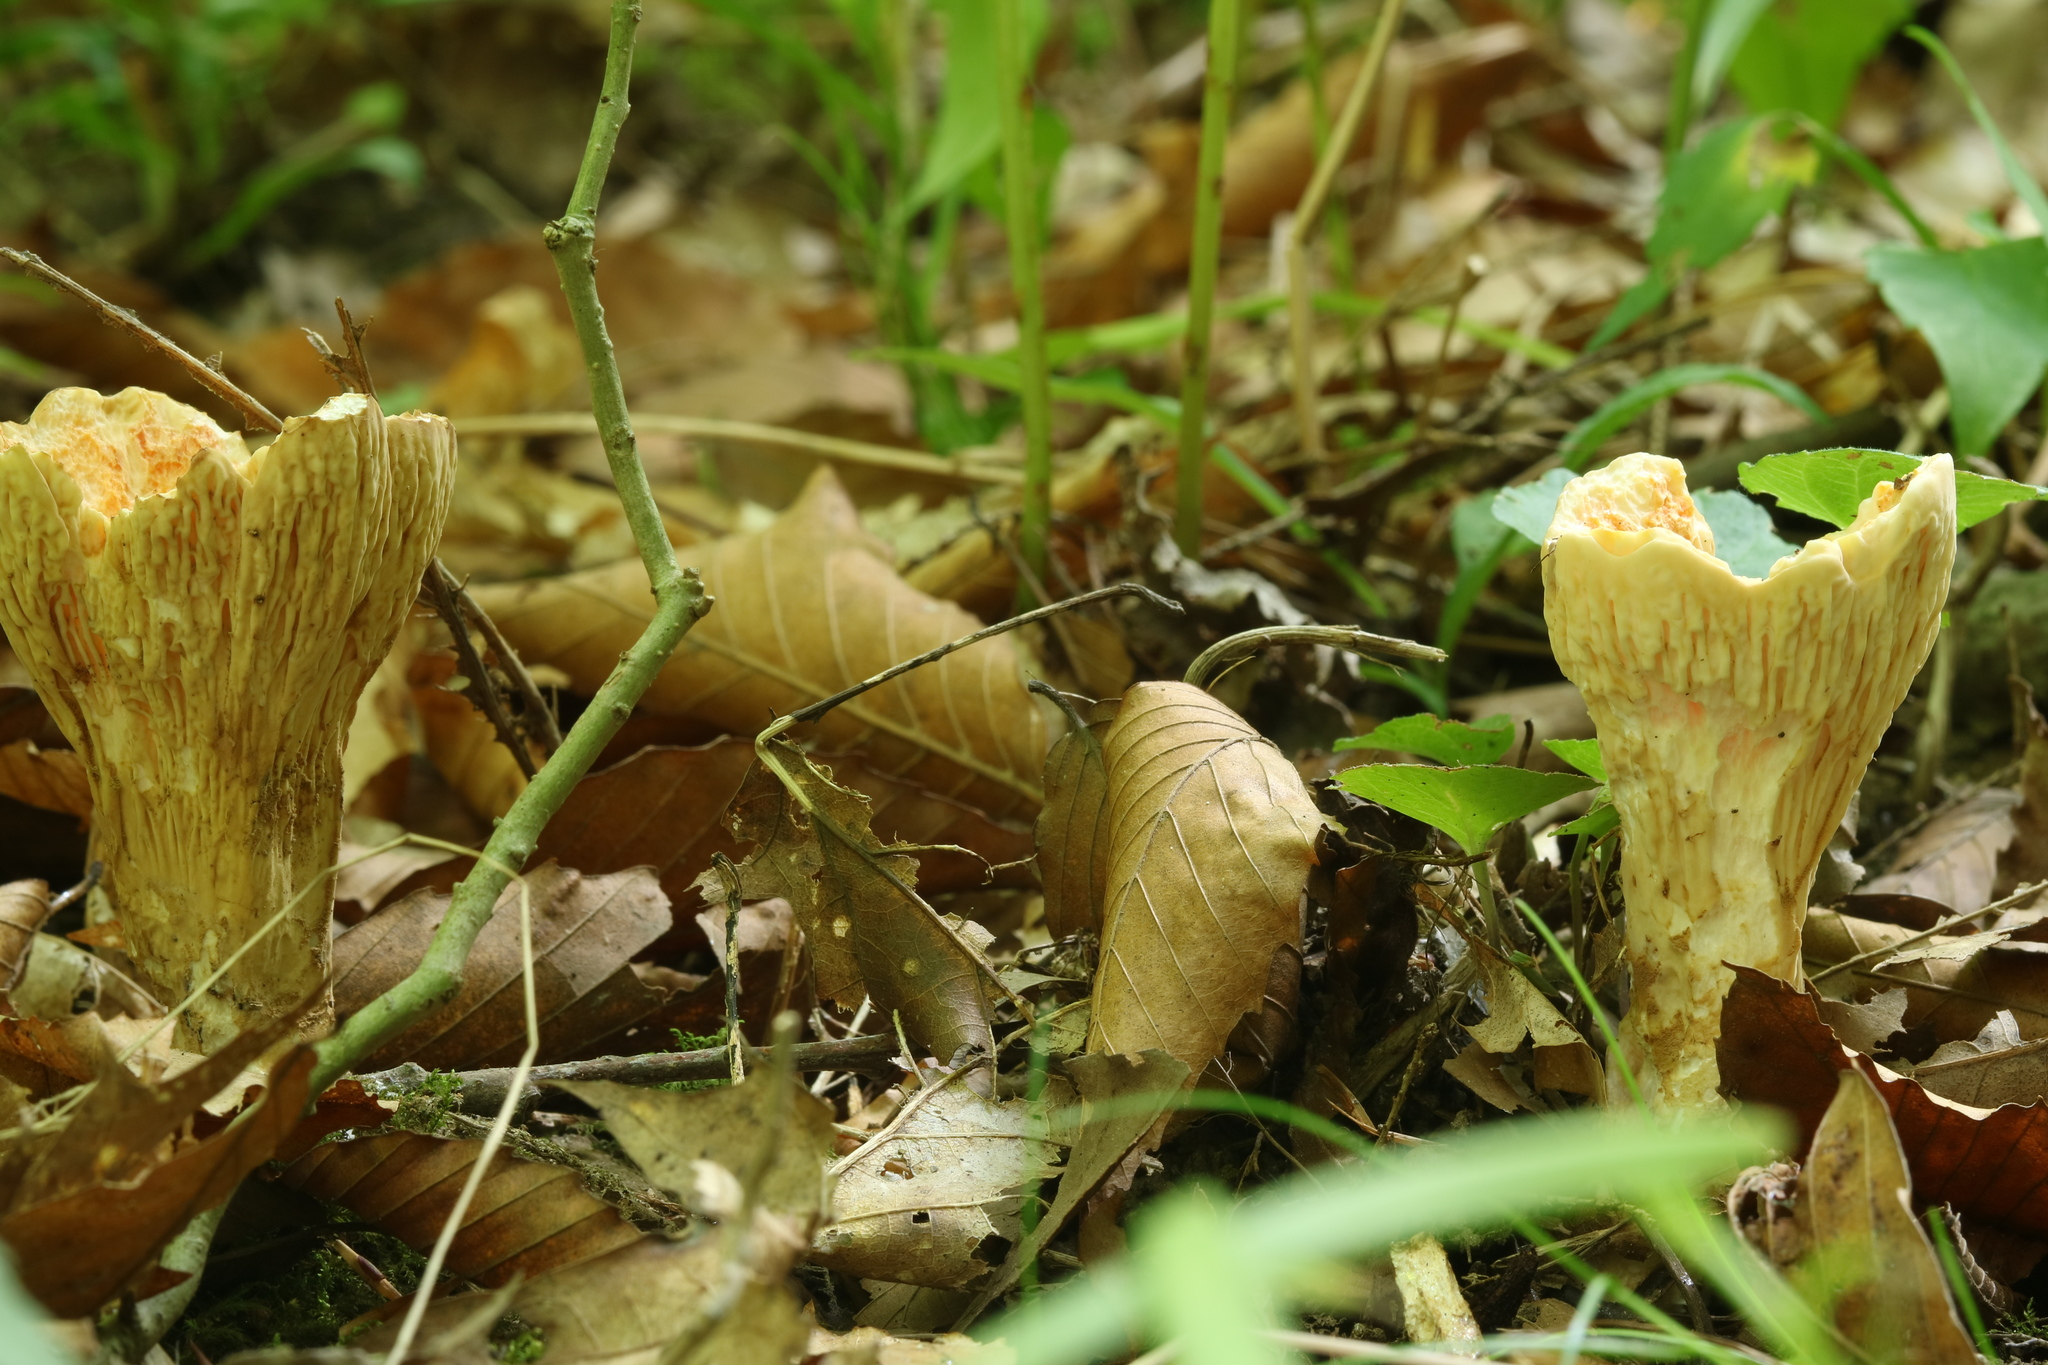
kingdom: Fungi
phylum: Basidiomycota
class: Agaricomycetes
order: Gomphales
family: Gomphaceae
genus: Turbinellus
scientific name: Turbinellus floccosus
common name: Scaly chanterelle
